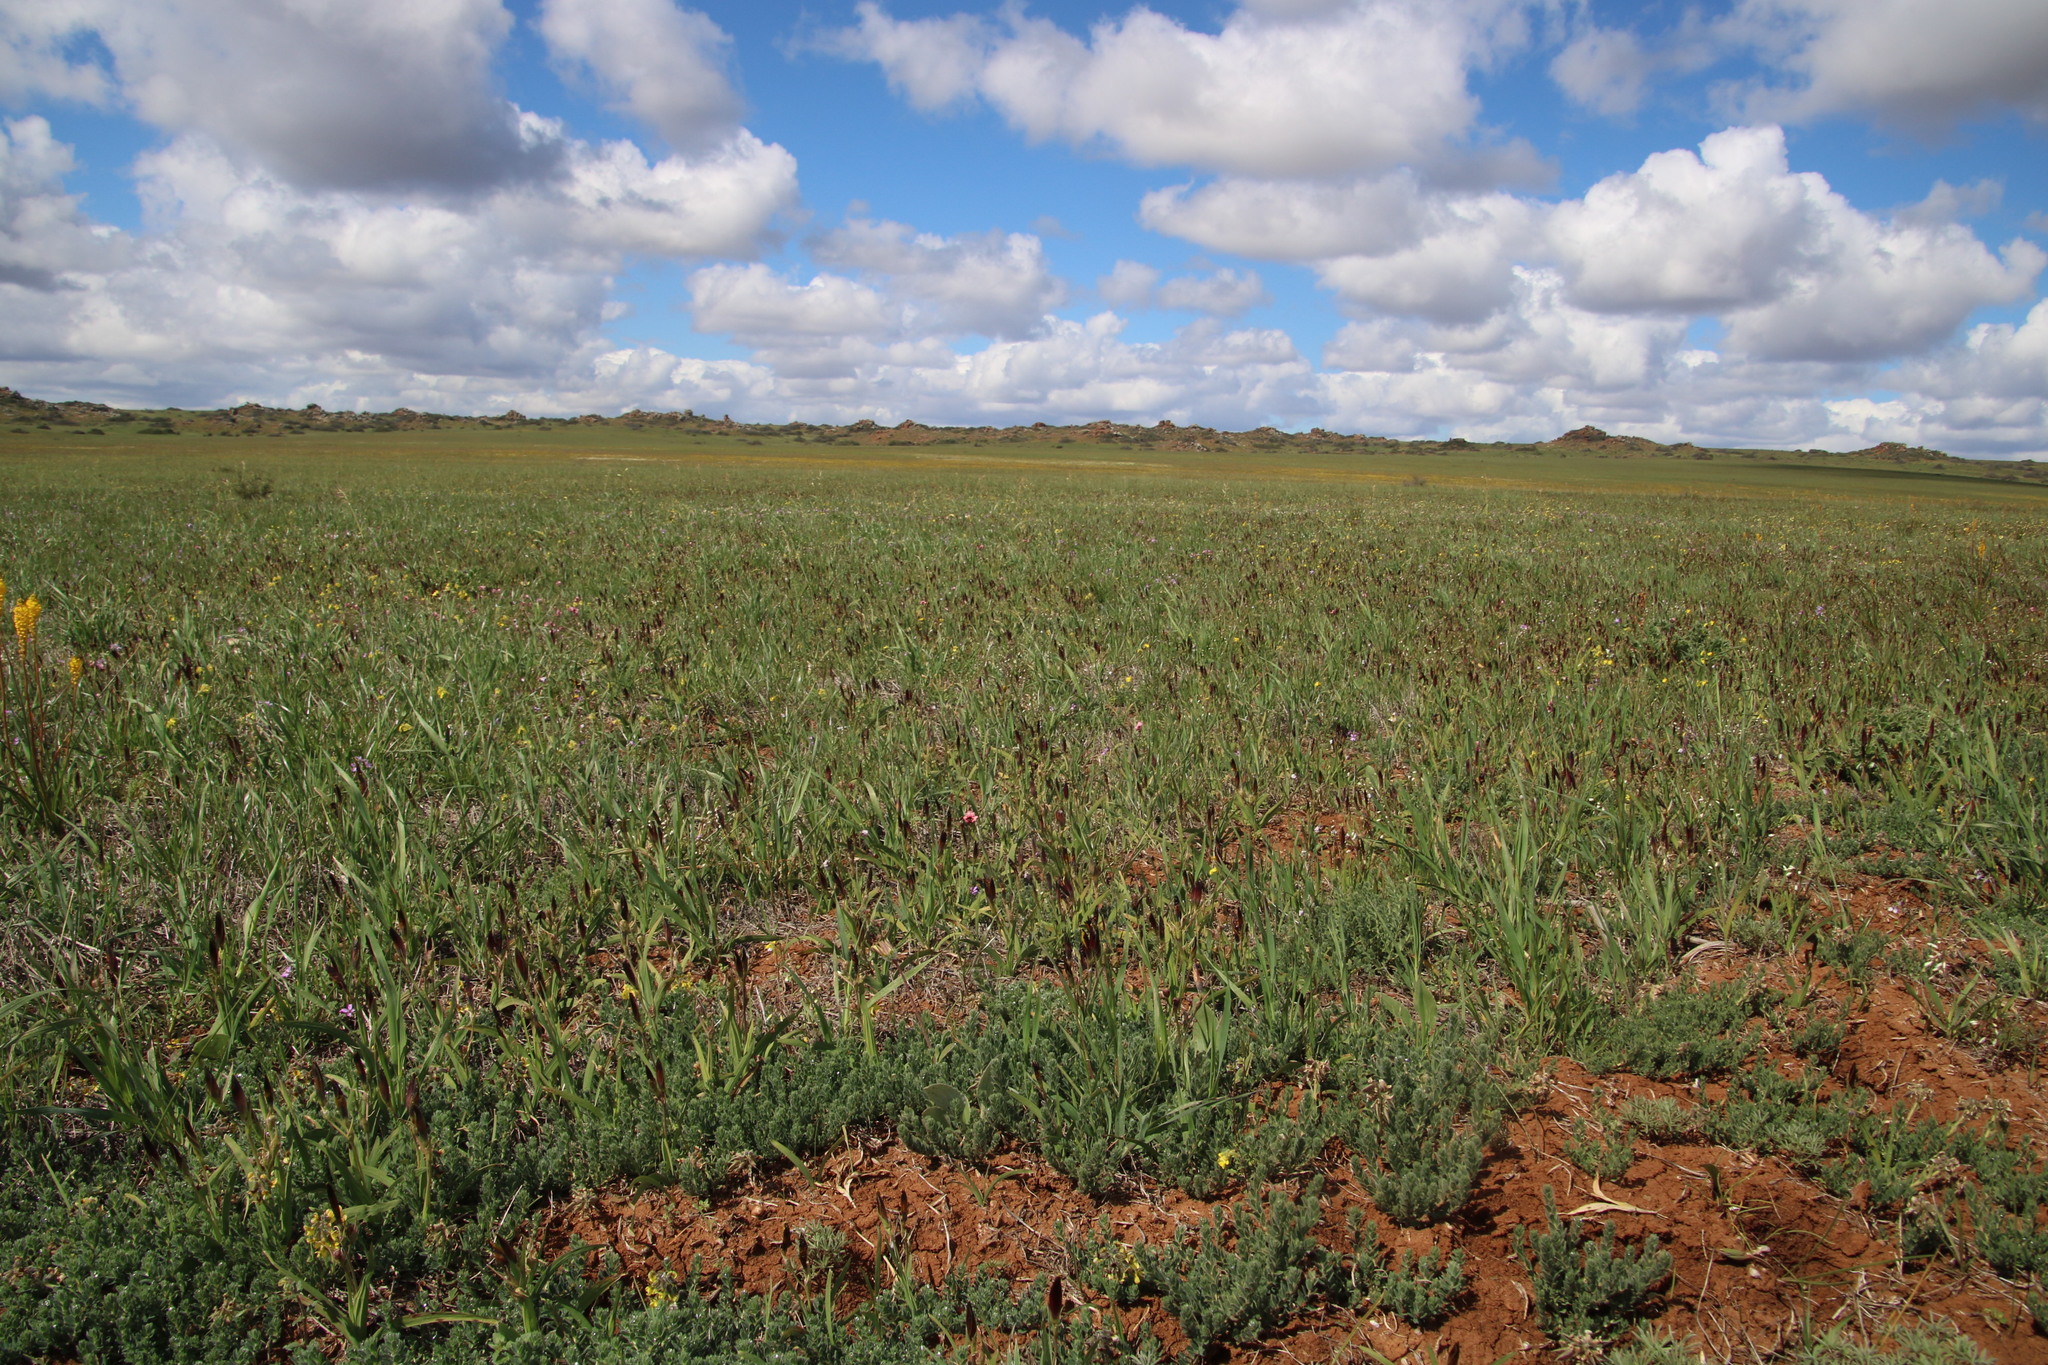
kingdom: Plantae
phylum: Tracheophyta
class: Liliopsida
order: Asparagales
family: Iridaceae
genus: Hesperantha
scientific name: Hesperantha vaginata
